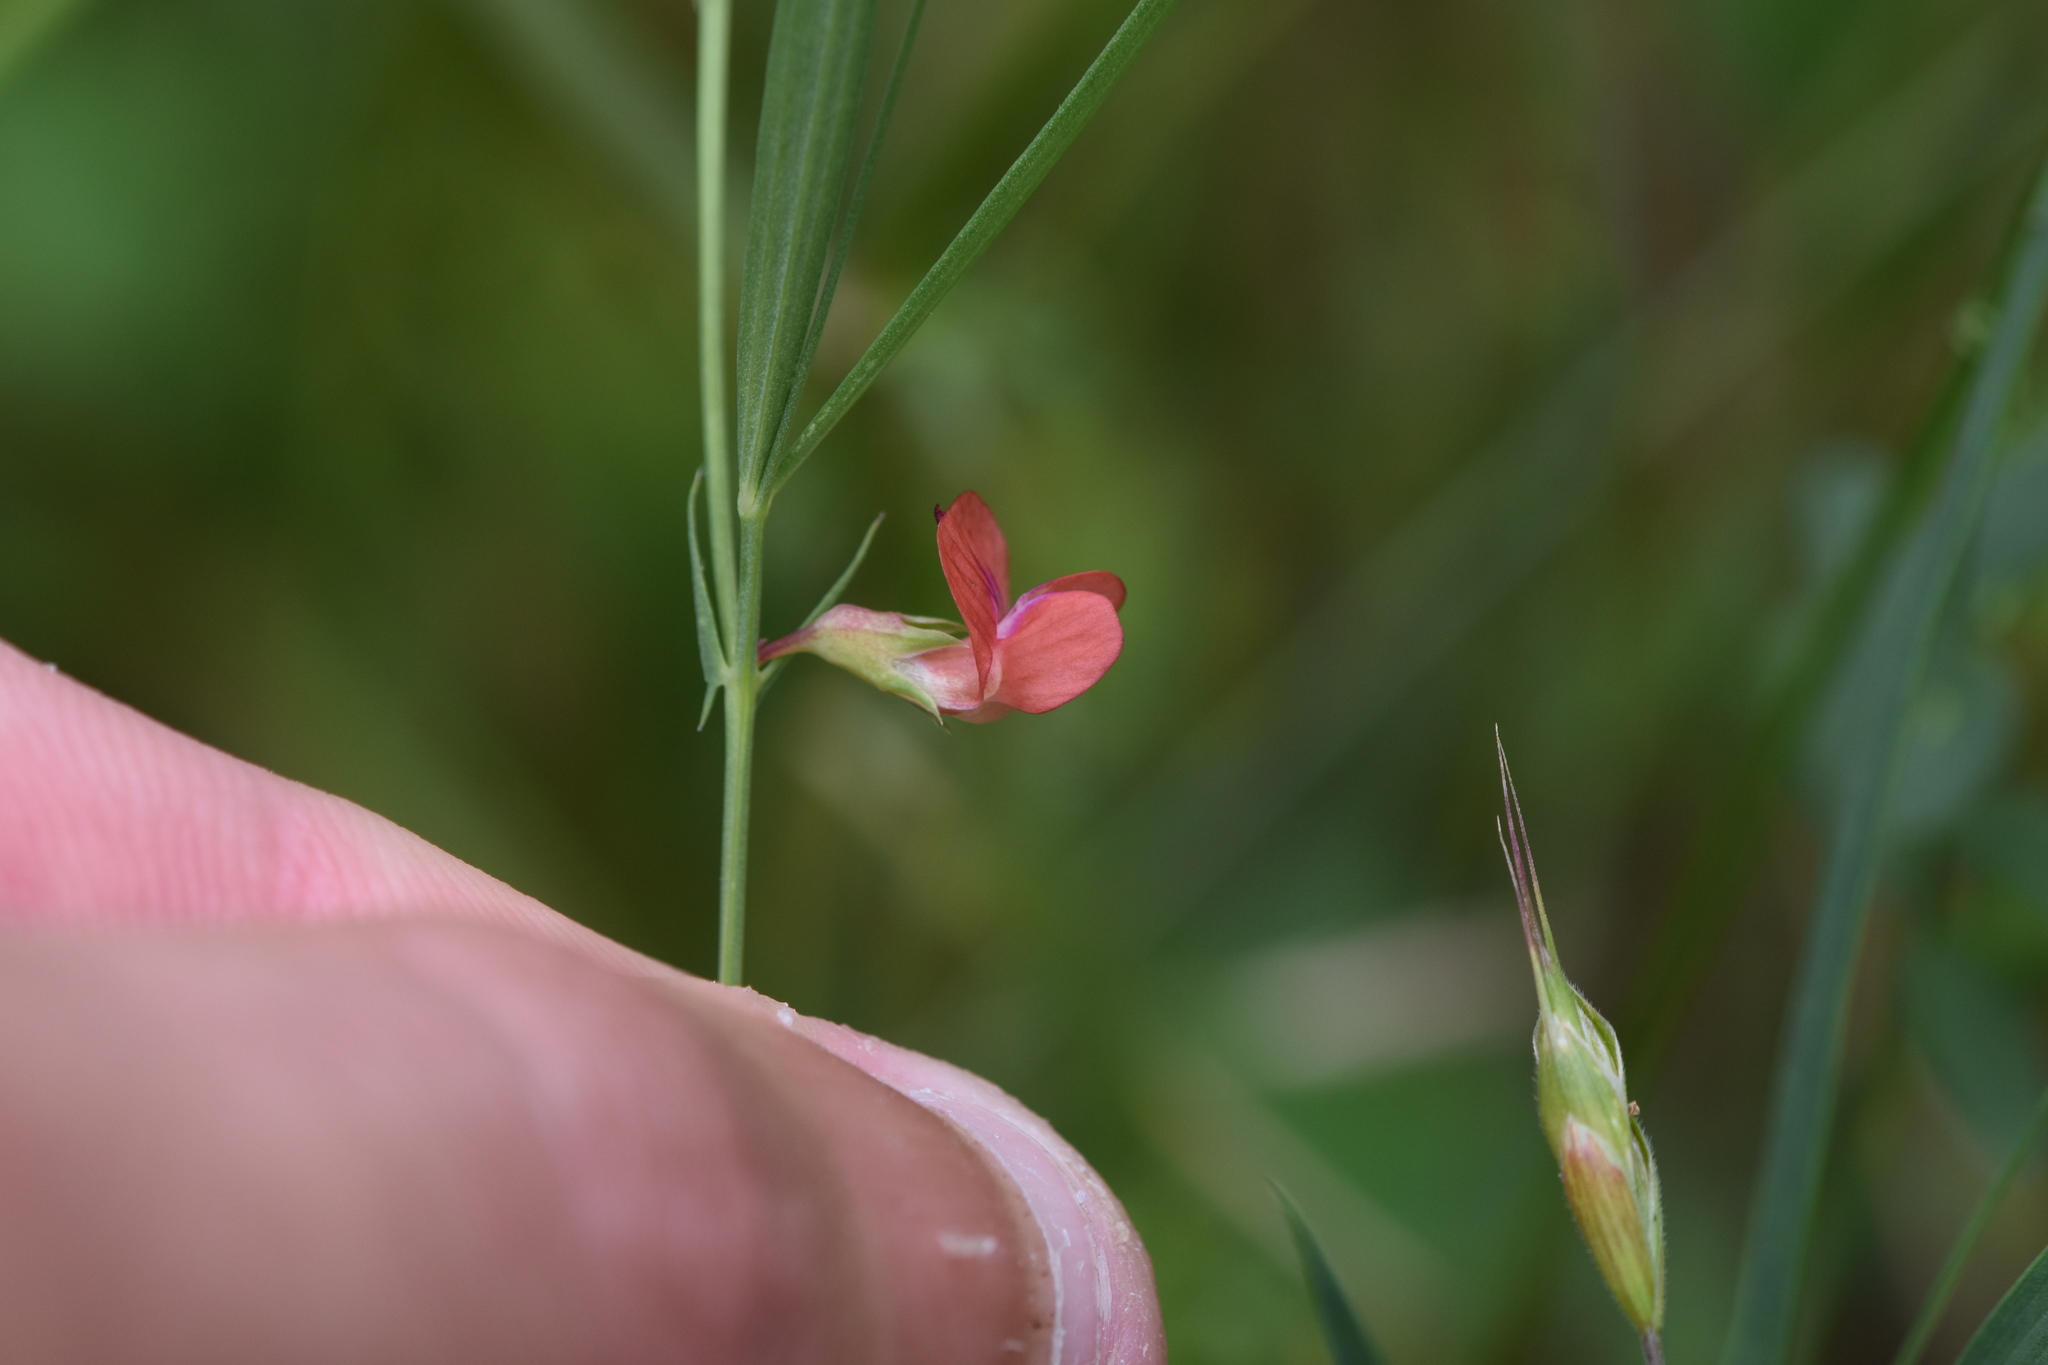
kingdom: Plantae
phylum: Tracheophyta
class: Magnoliopsida
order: Fabales
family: Fabaceae
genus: Lathyrus
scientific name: Lathyrus sphaericus
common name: Grass pea
